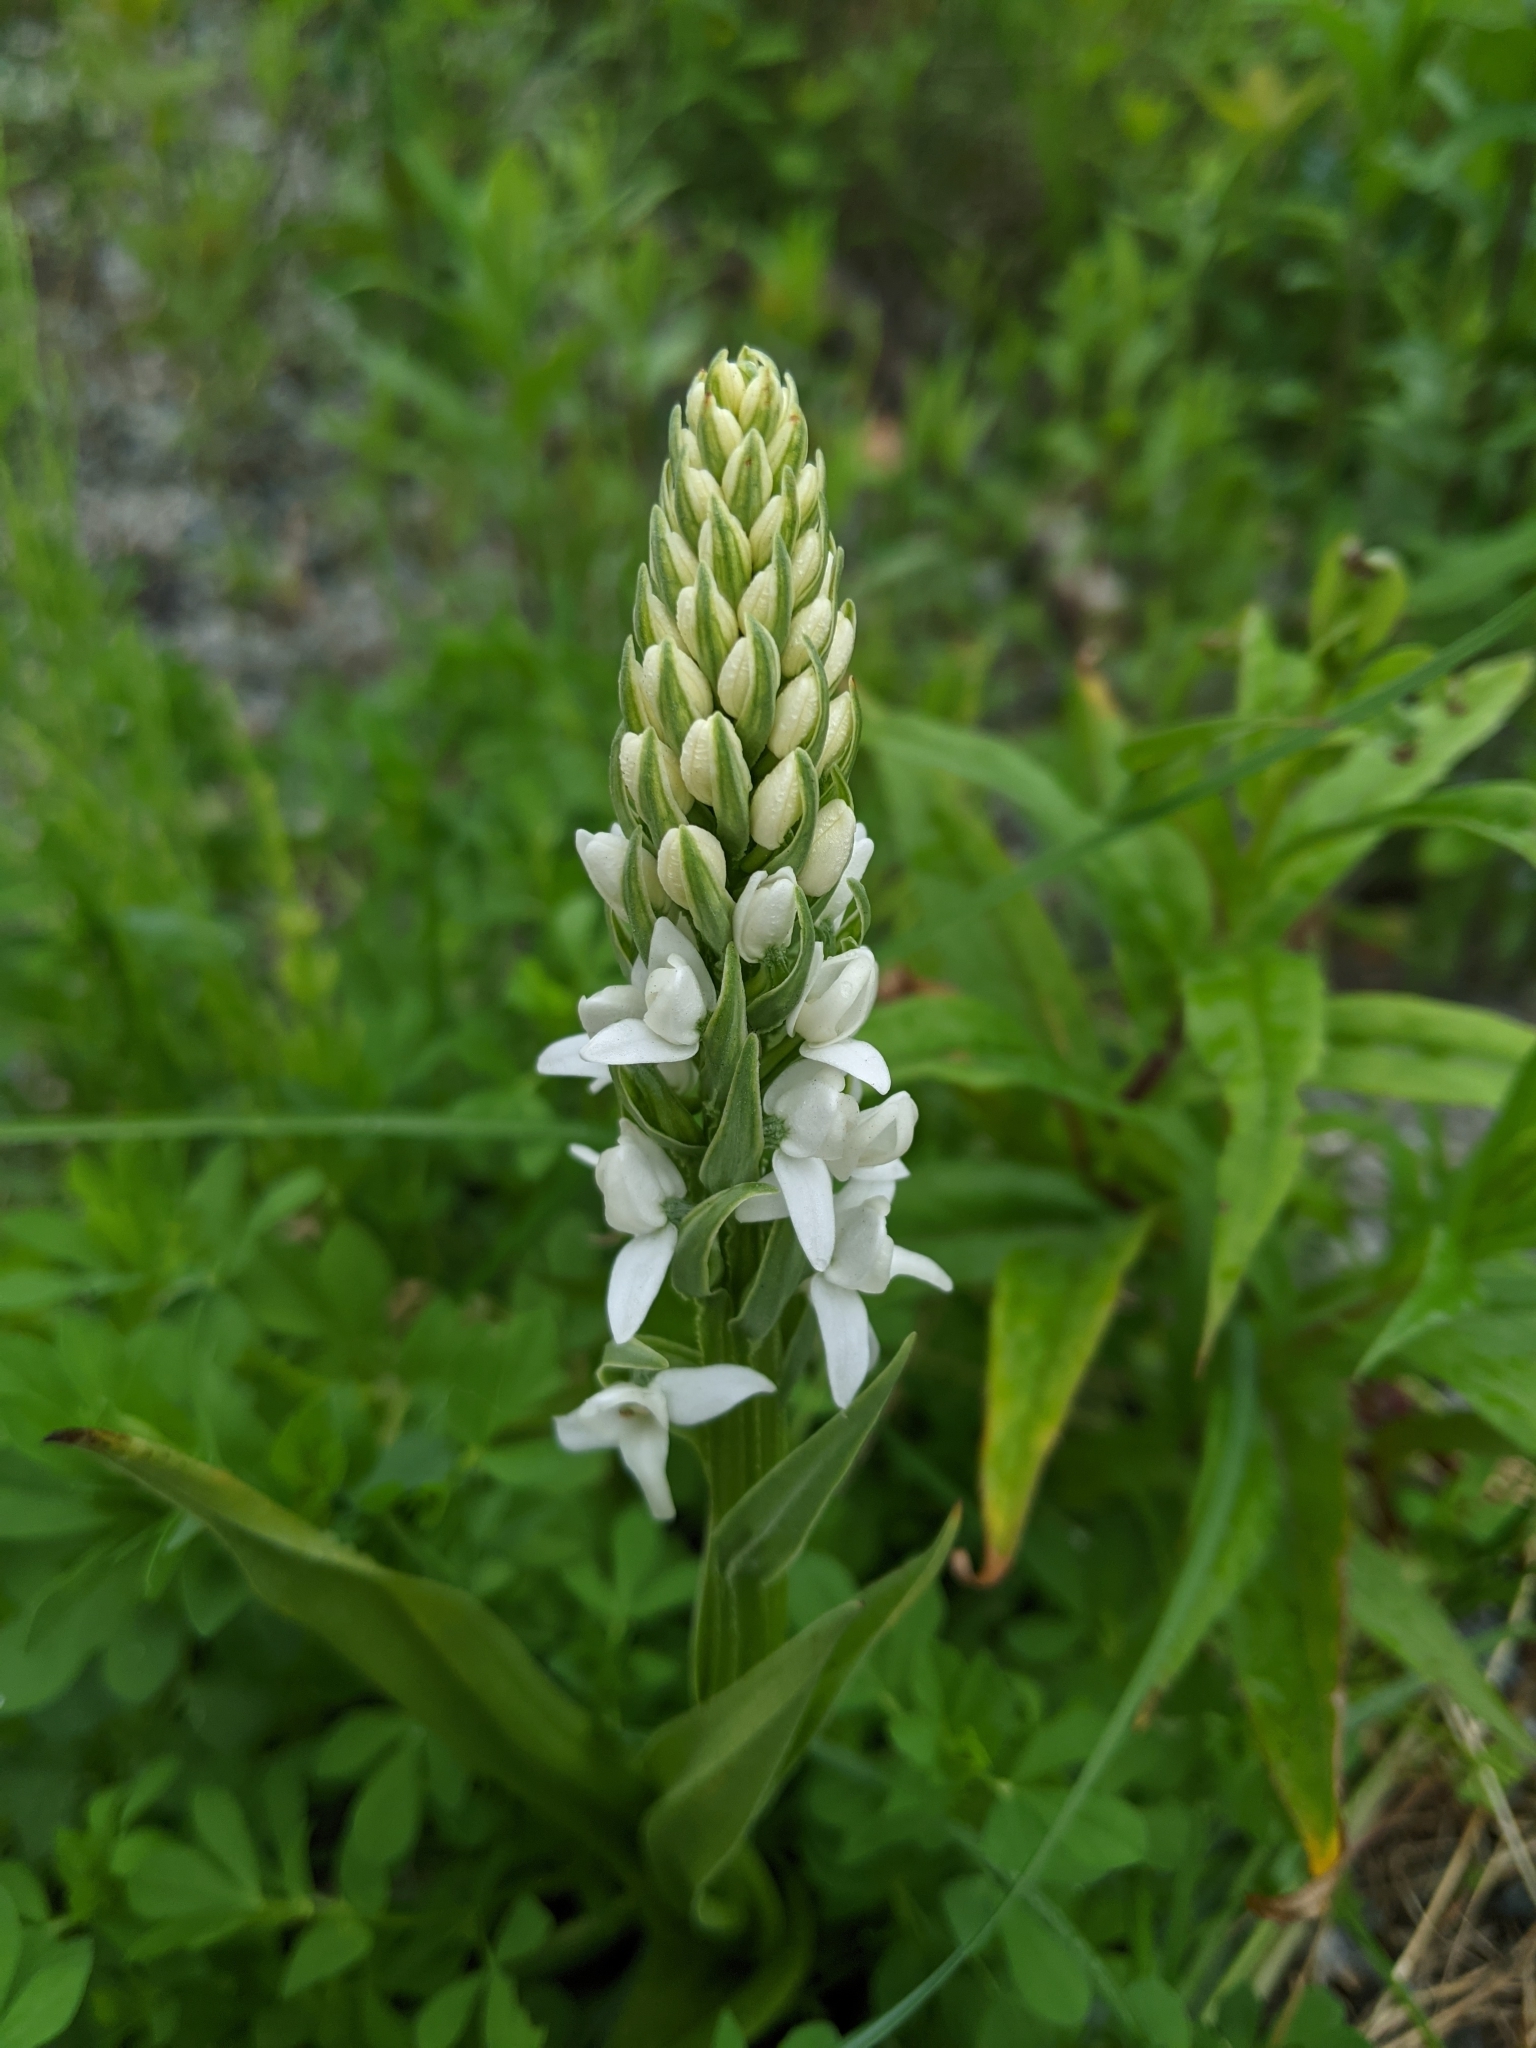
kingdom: Plantae
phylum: Tracheophyta
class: Liliopsida
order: Asparagales
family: Orchidaceae
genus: Platanthera
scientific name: Platanthera dilatata
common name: Bog candles
